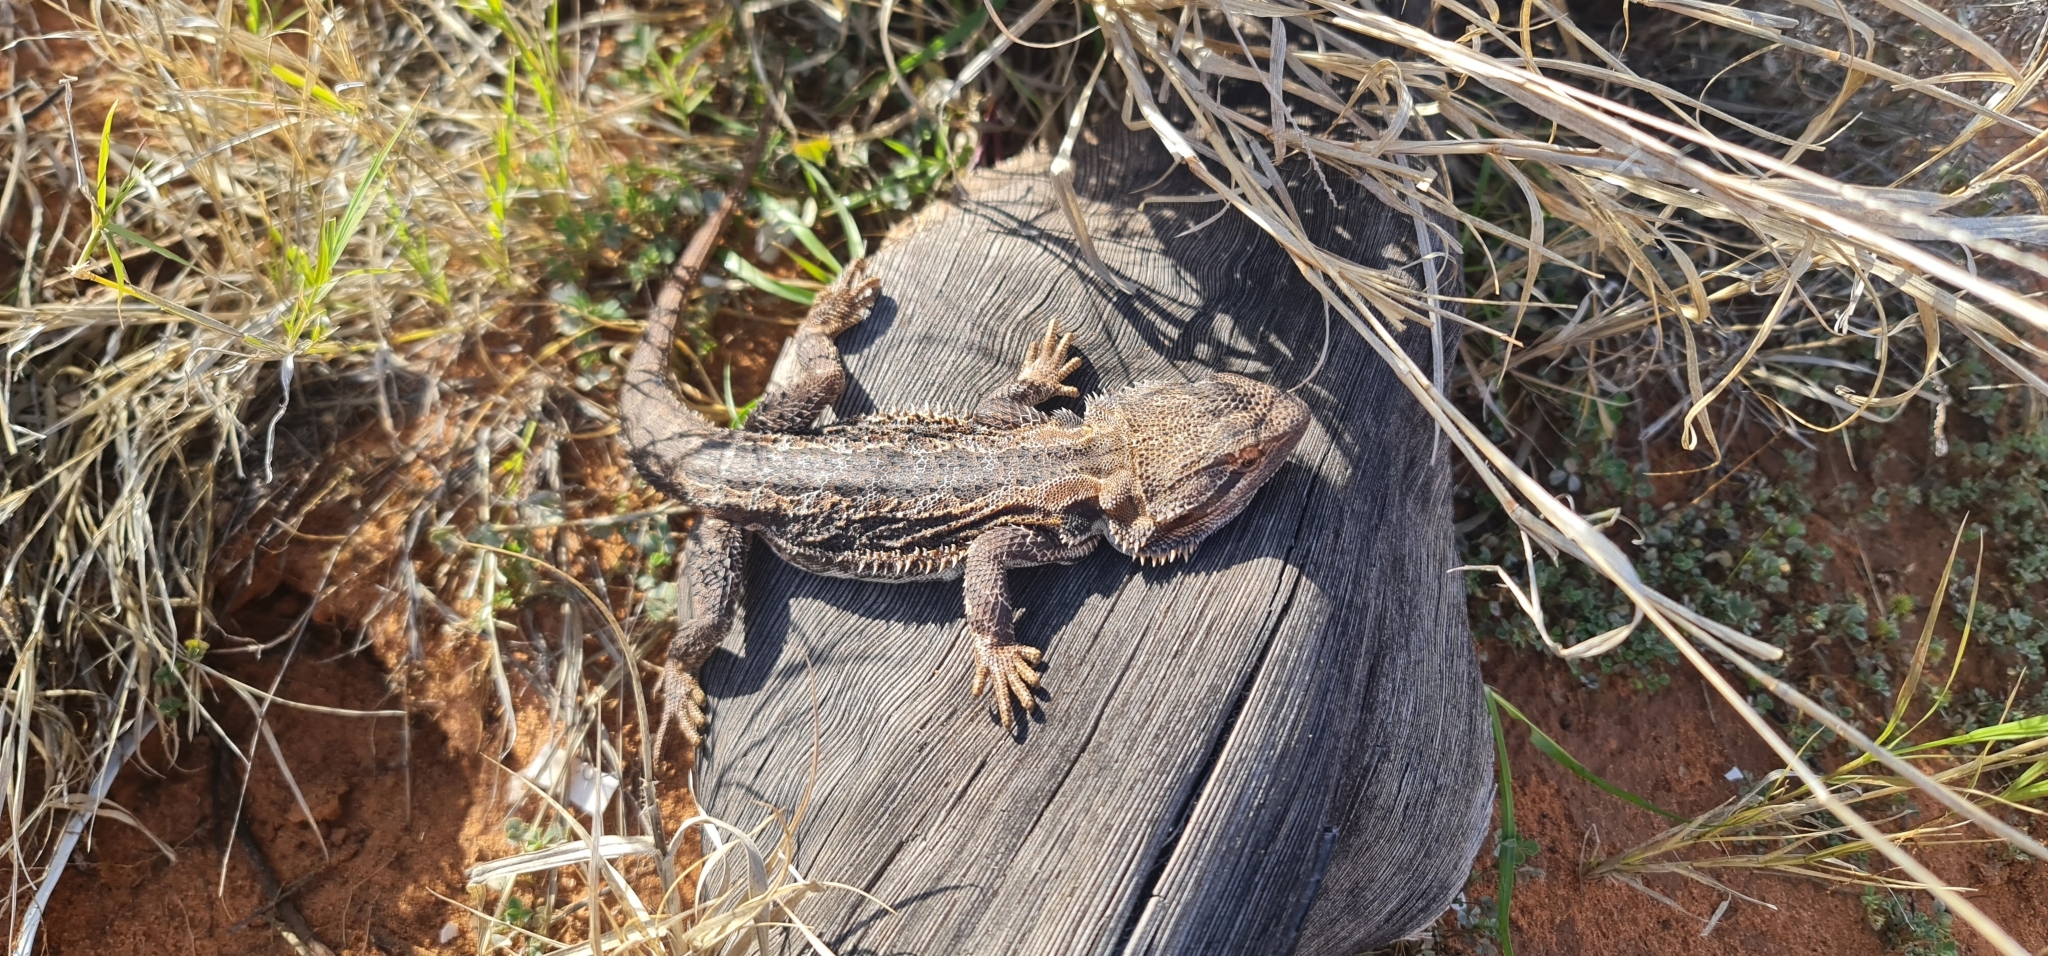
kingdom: Animalia
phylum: Chordata
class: Squamata
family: Agamidae
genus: Pogona
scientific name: Pogona vitticeps
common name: Central bearded dragon
